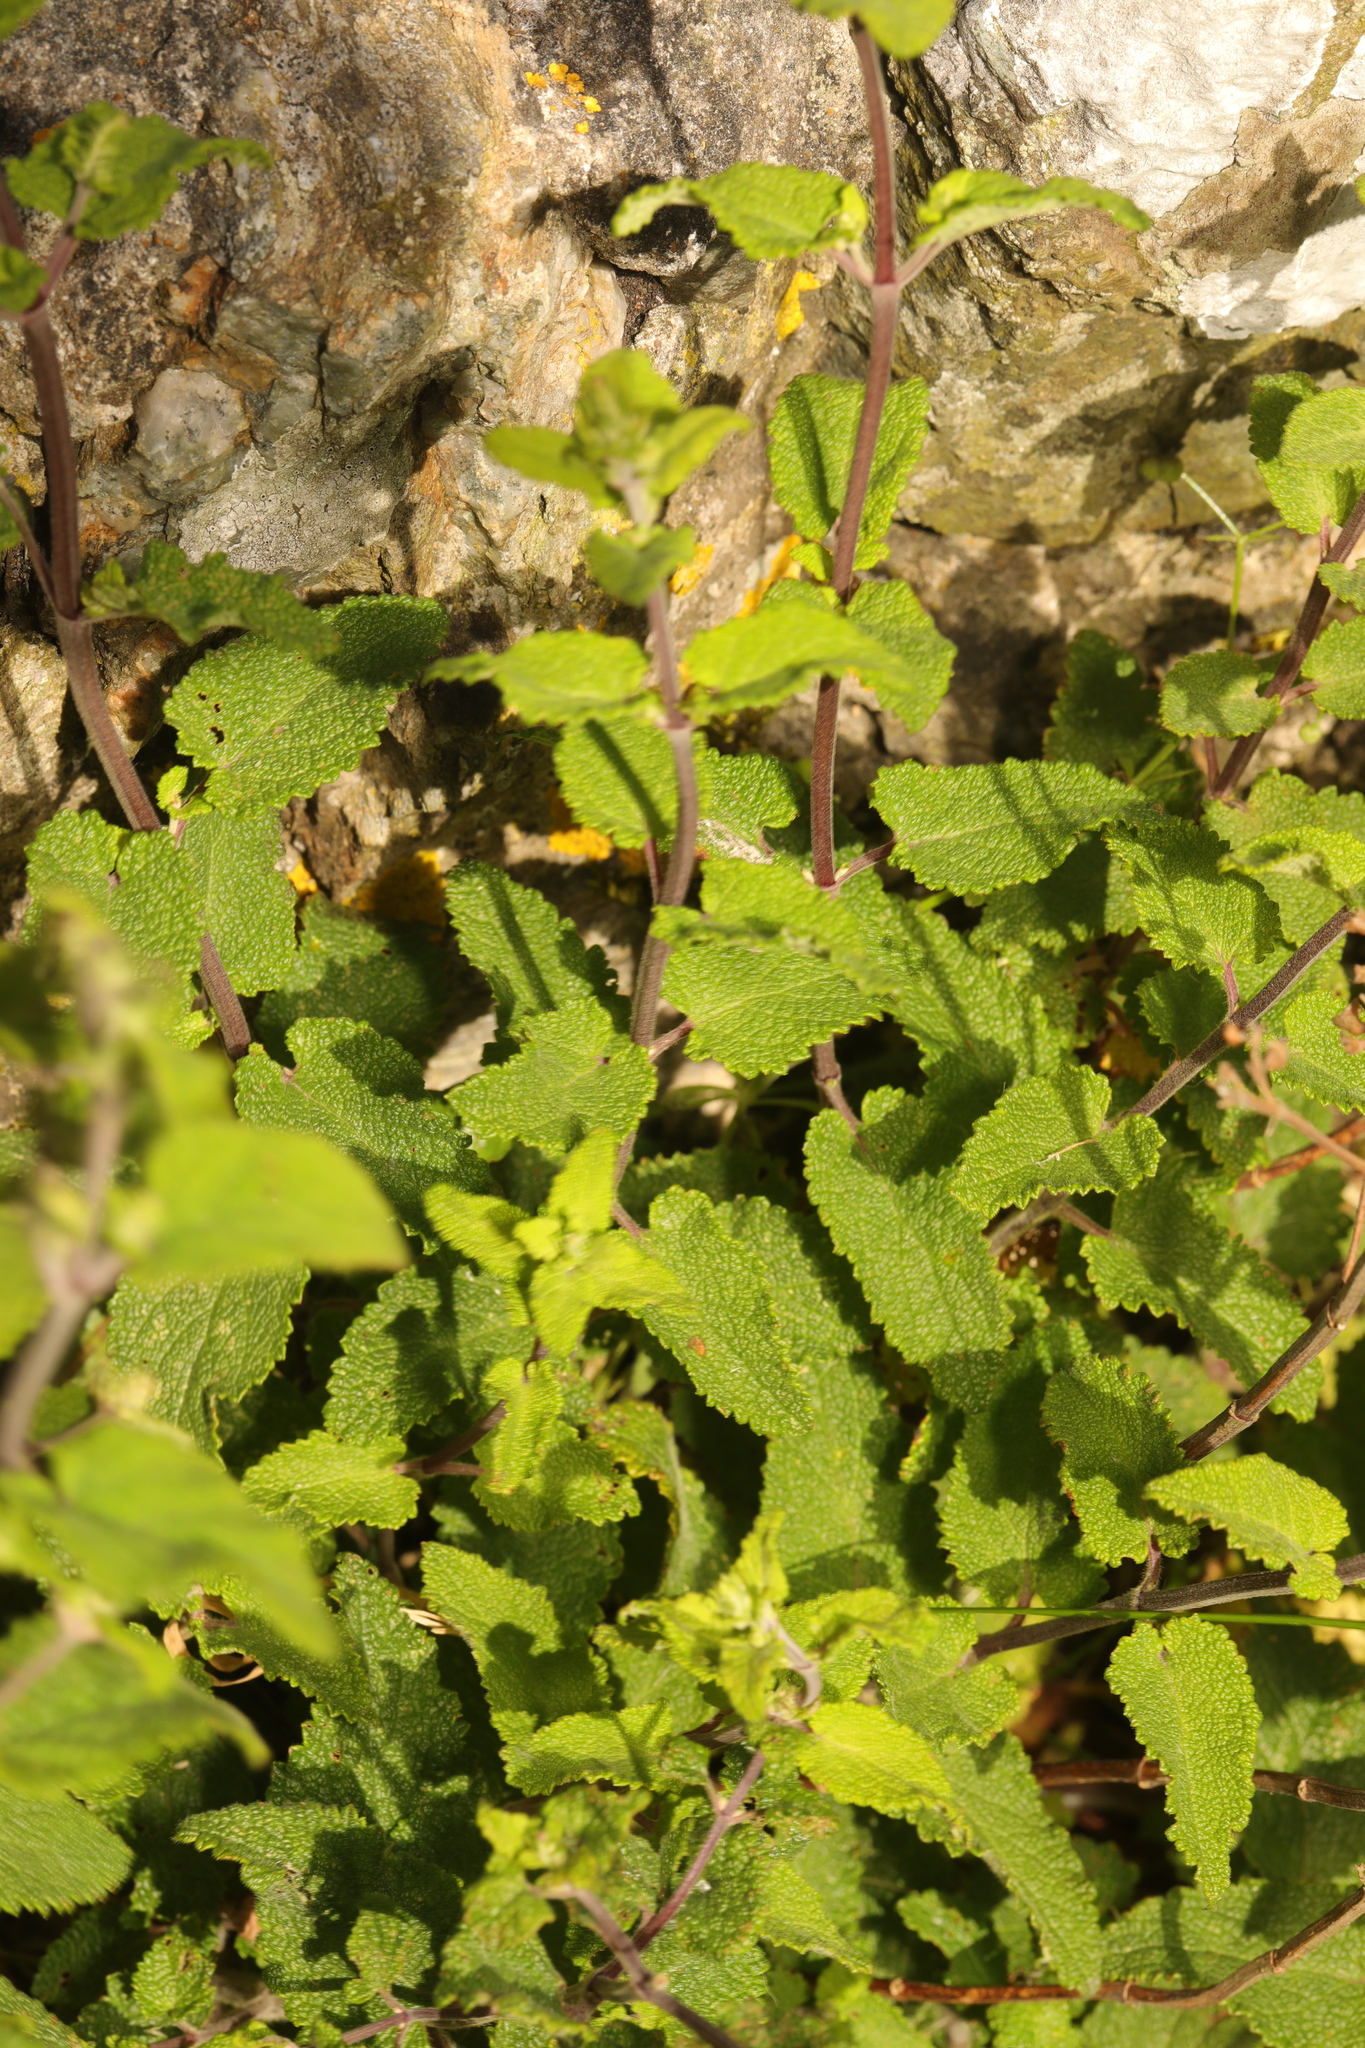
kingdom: Plantae
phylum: Tracheophyta
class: Magnoliopsida
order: Lamiales
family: Lamiaceae
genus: Teucrium
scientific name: Teucrium scorodonia
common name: Woodland germander
